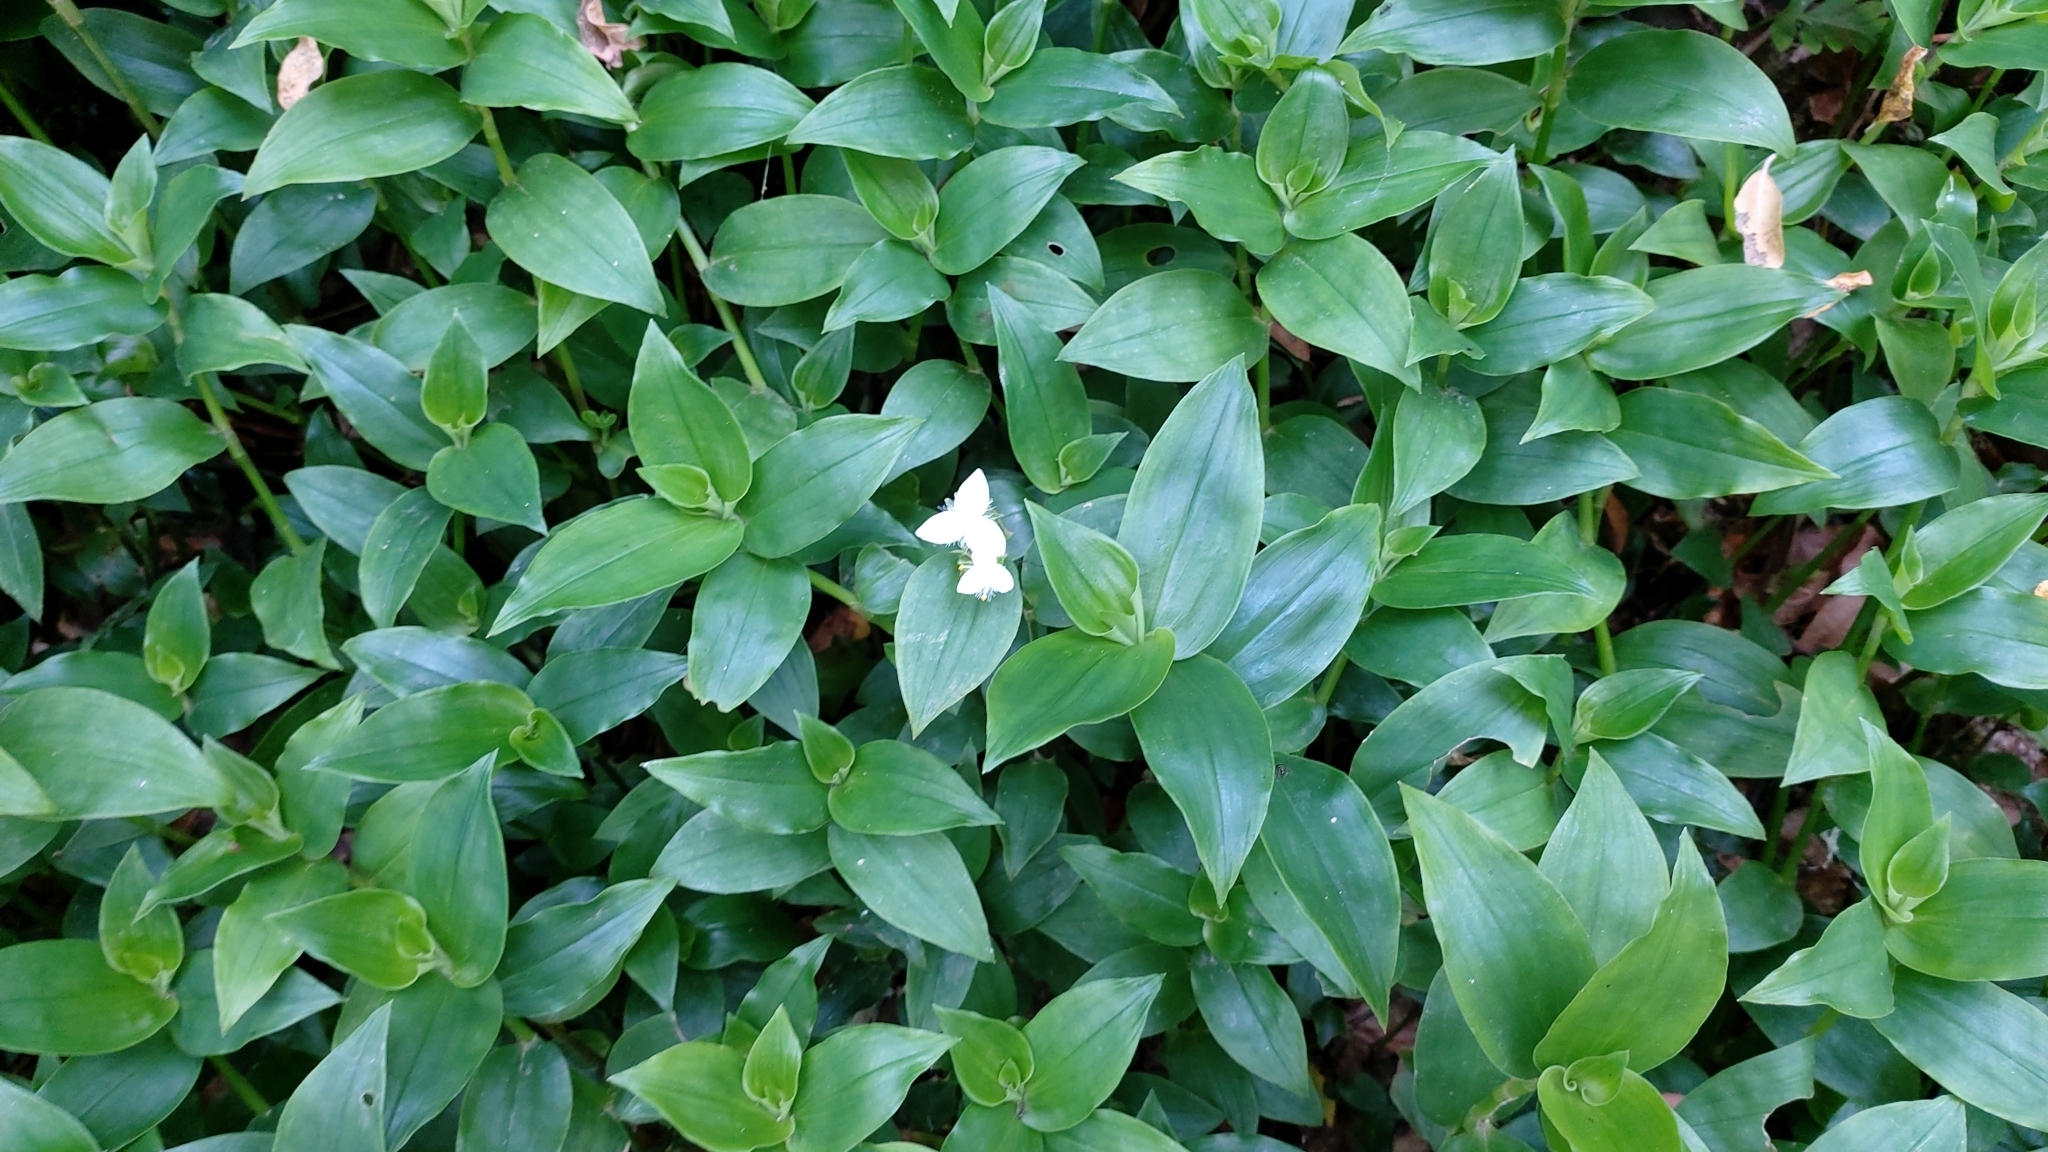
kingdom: Plantae
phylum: Tracheophyta
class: Liliopsida
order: Commelinales
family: Commelinaceae
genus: Tradescantia
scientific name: Tradescantia fluminensis
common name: Wandering-jew
